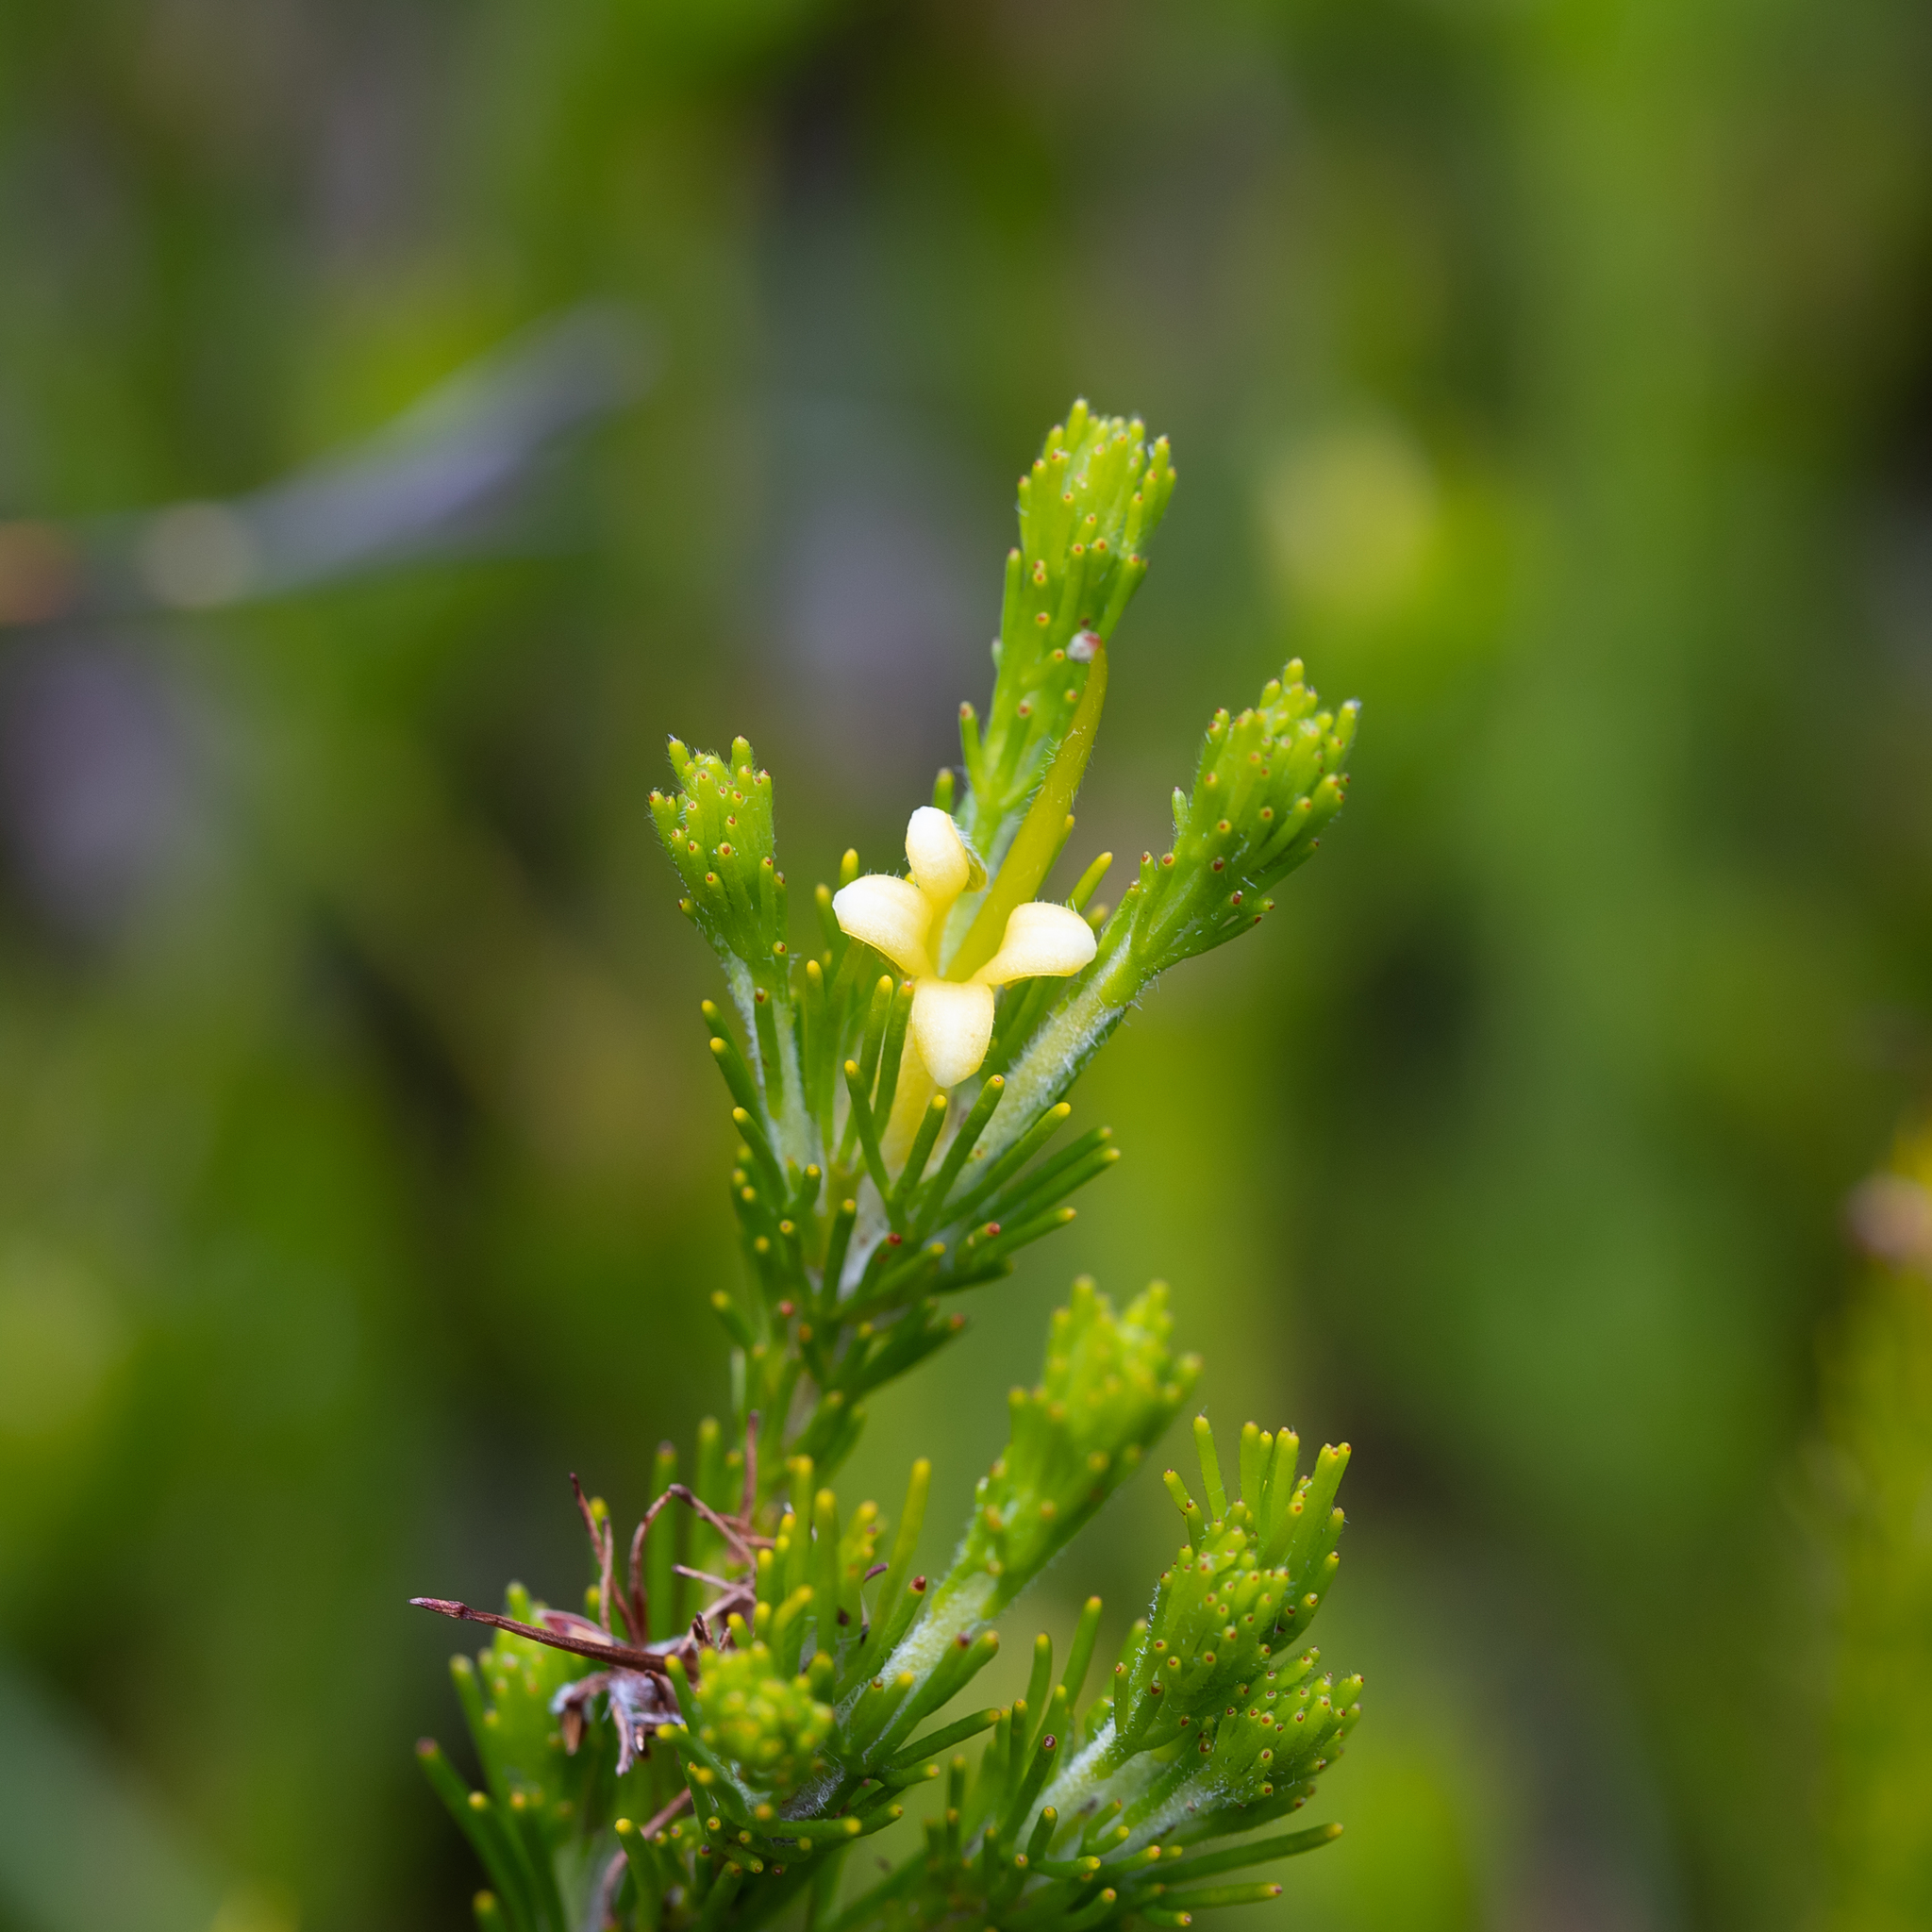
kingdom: Plantae
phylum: Tracheophyta
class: Magnoliopsida
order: Proteales
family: Proteaceae
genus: Adenanthos
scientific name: Adenanthos terminalis
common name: Yellow gland-flower
